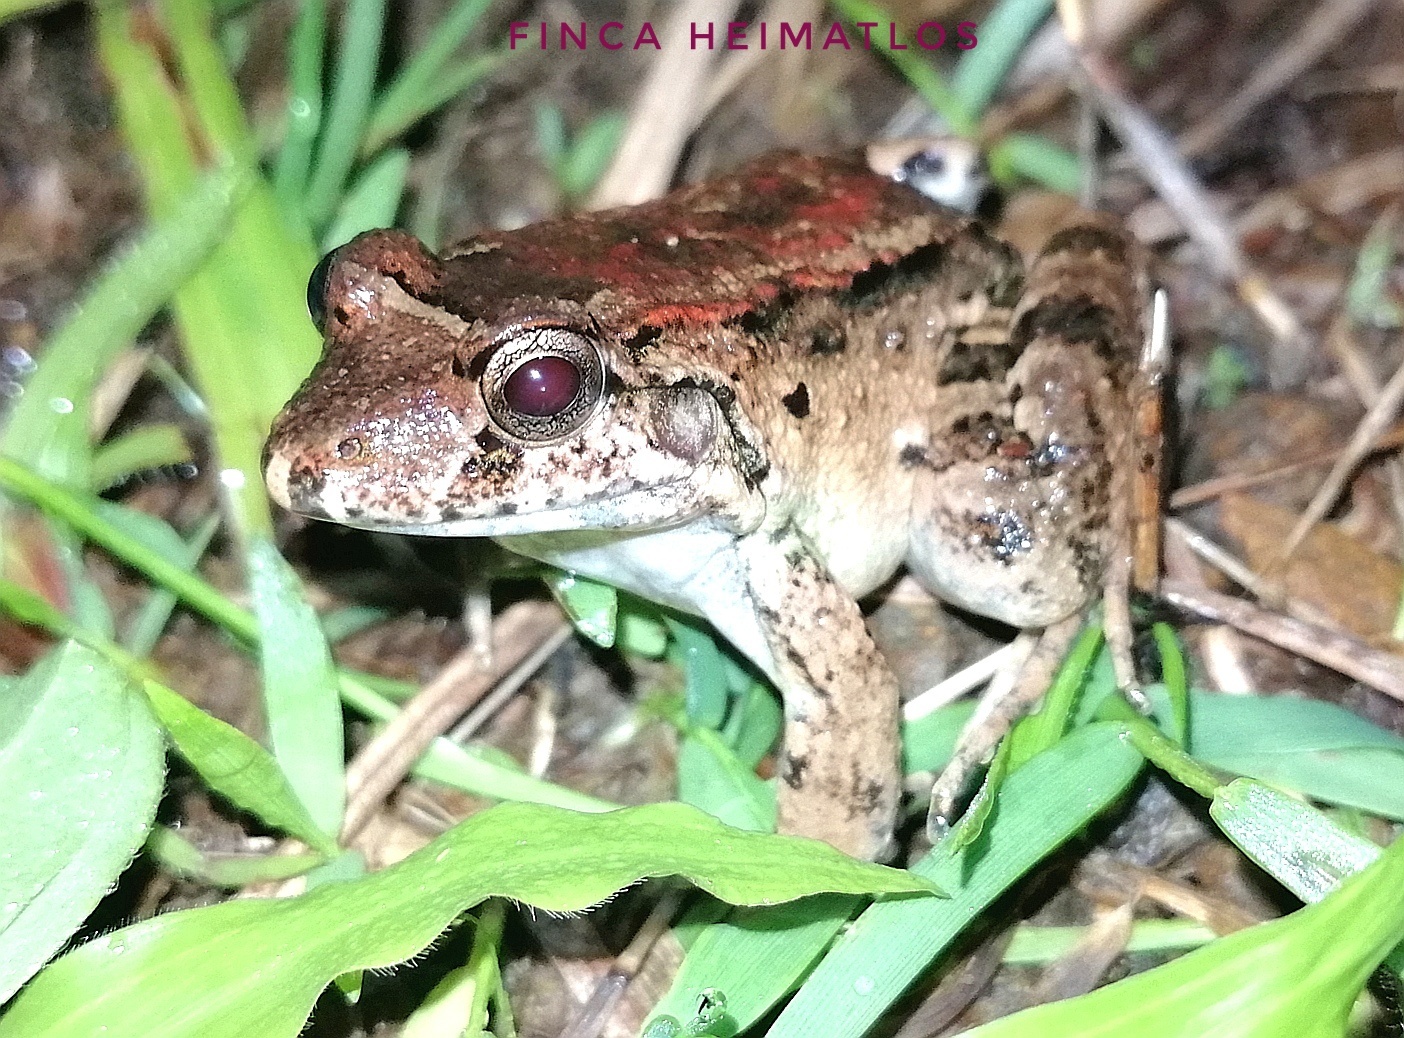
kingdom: Animalia
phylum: Chordata
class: Amphibia
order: Anura
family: Leptodactylidae
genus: Leptodactylus
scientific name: Leptodactylus wagneri
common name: Wagner's white-lipped frog
